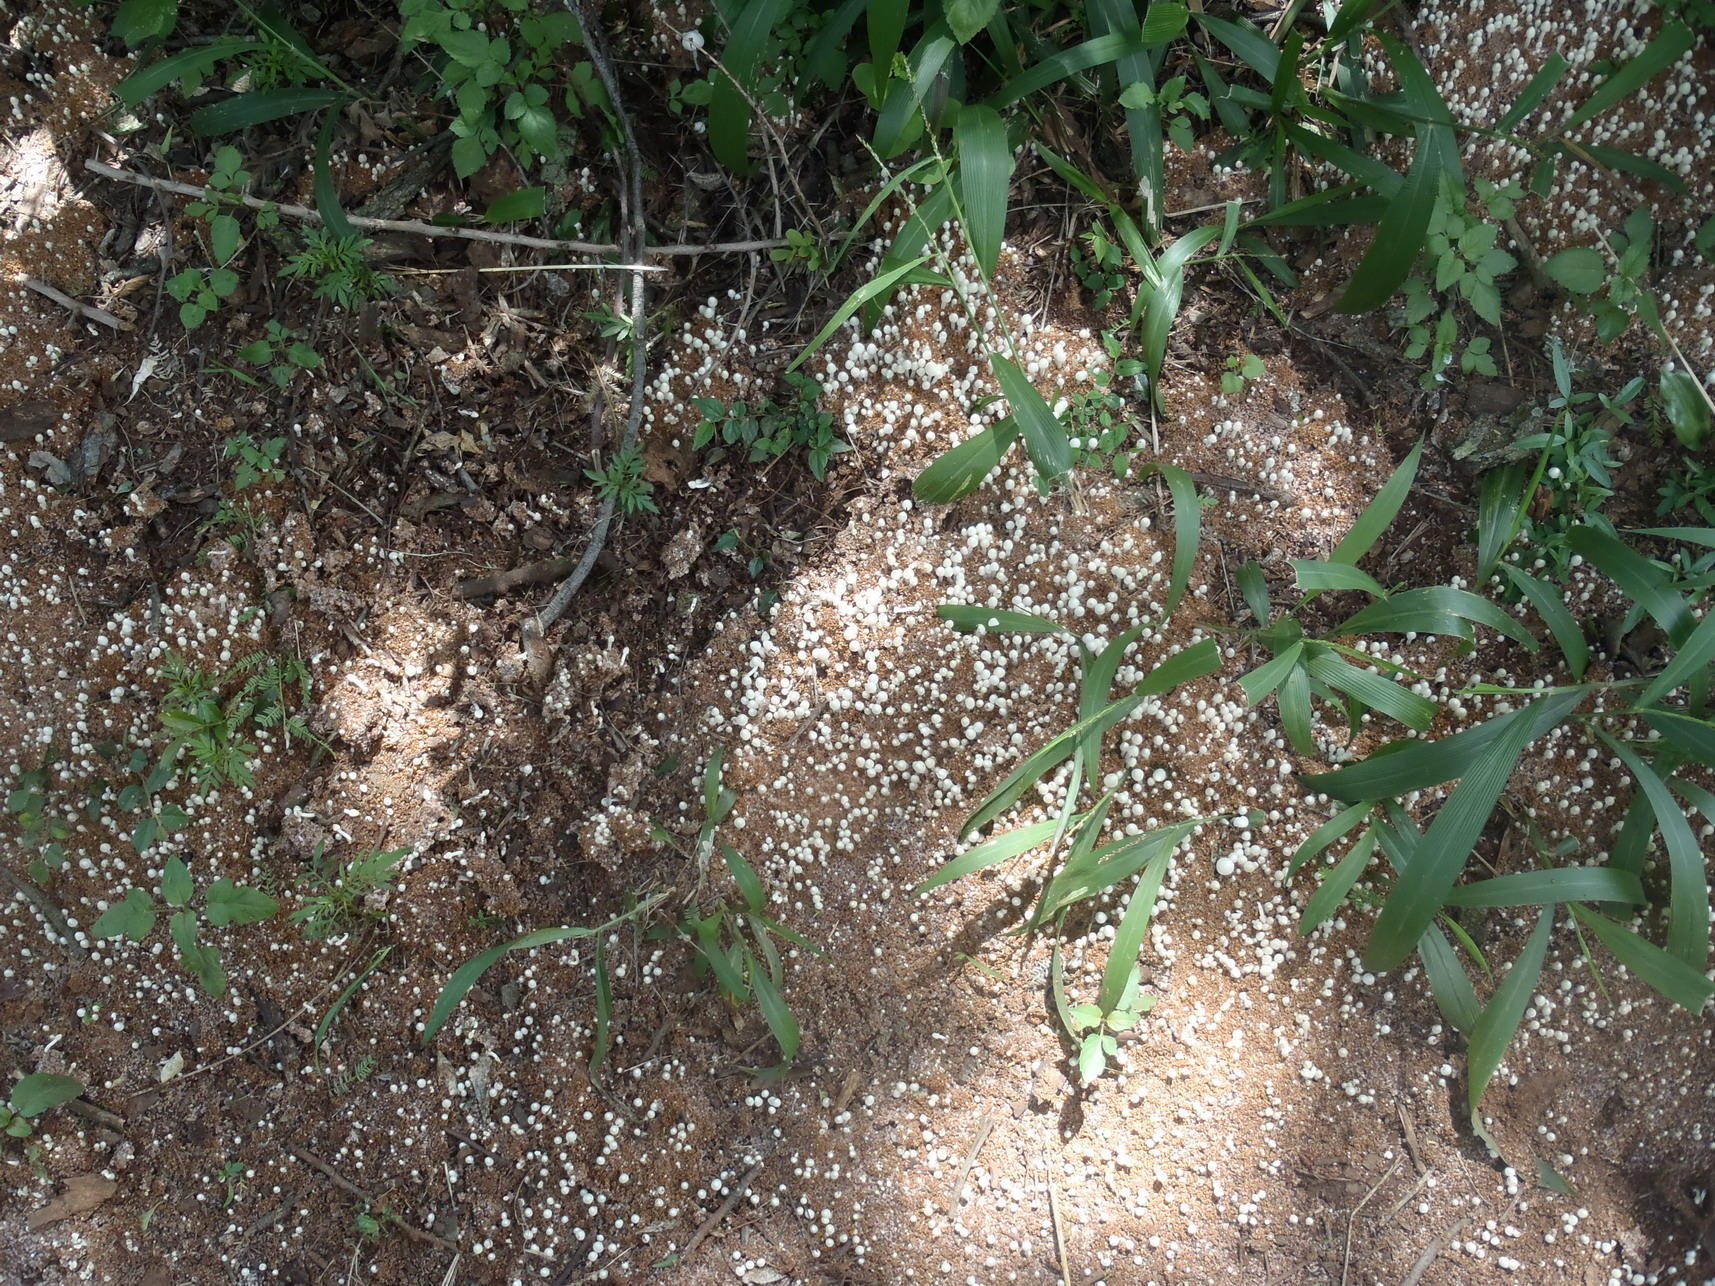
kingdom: Fungi
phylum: Basidiomycota
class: Agaricomycetes
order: Agaricales
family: Lyophyllaceae
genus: Termitomyces
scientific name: Termitomyces microcarpus
